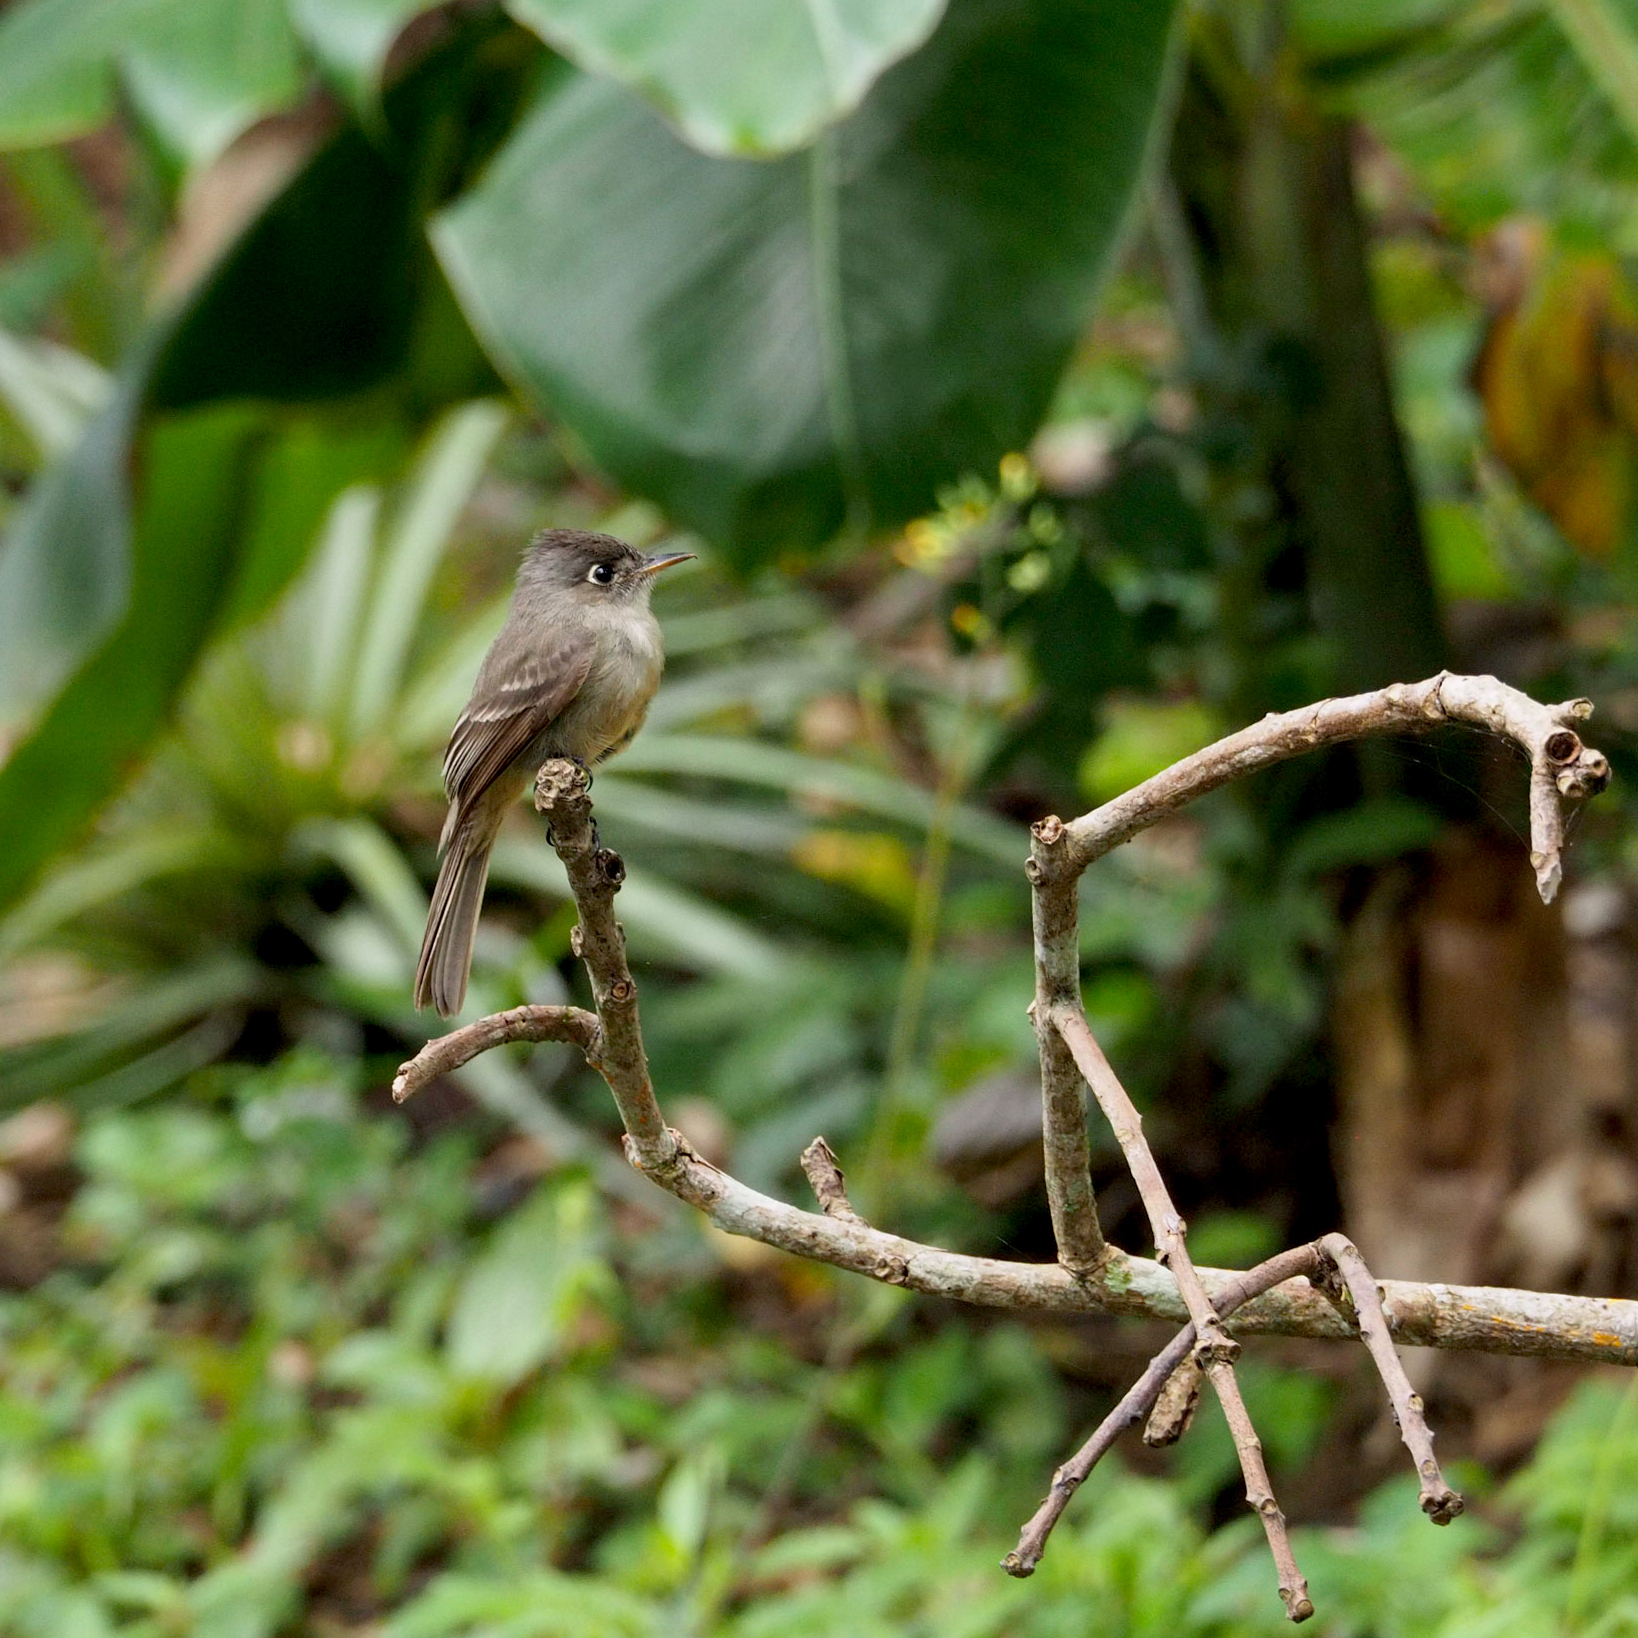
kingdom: Animalia
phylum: Chordata
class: Aves
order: Passeriformes
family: Tyrannidae
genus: Contopus
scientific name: Contopus caribaeus
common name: Cuban pewee
